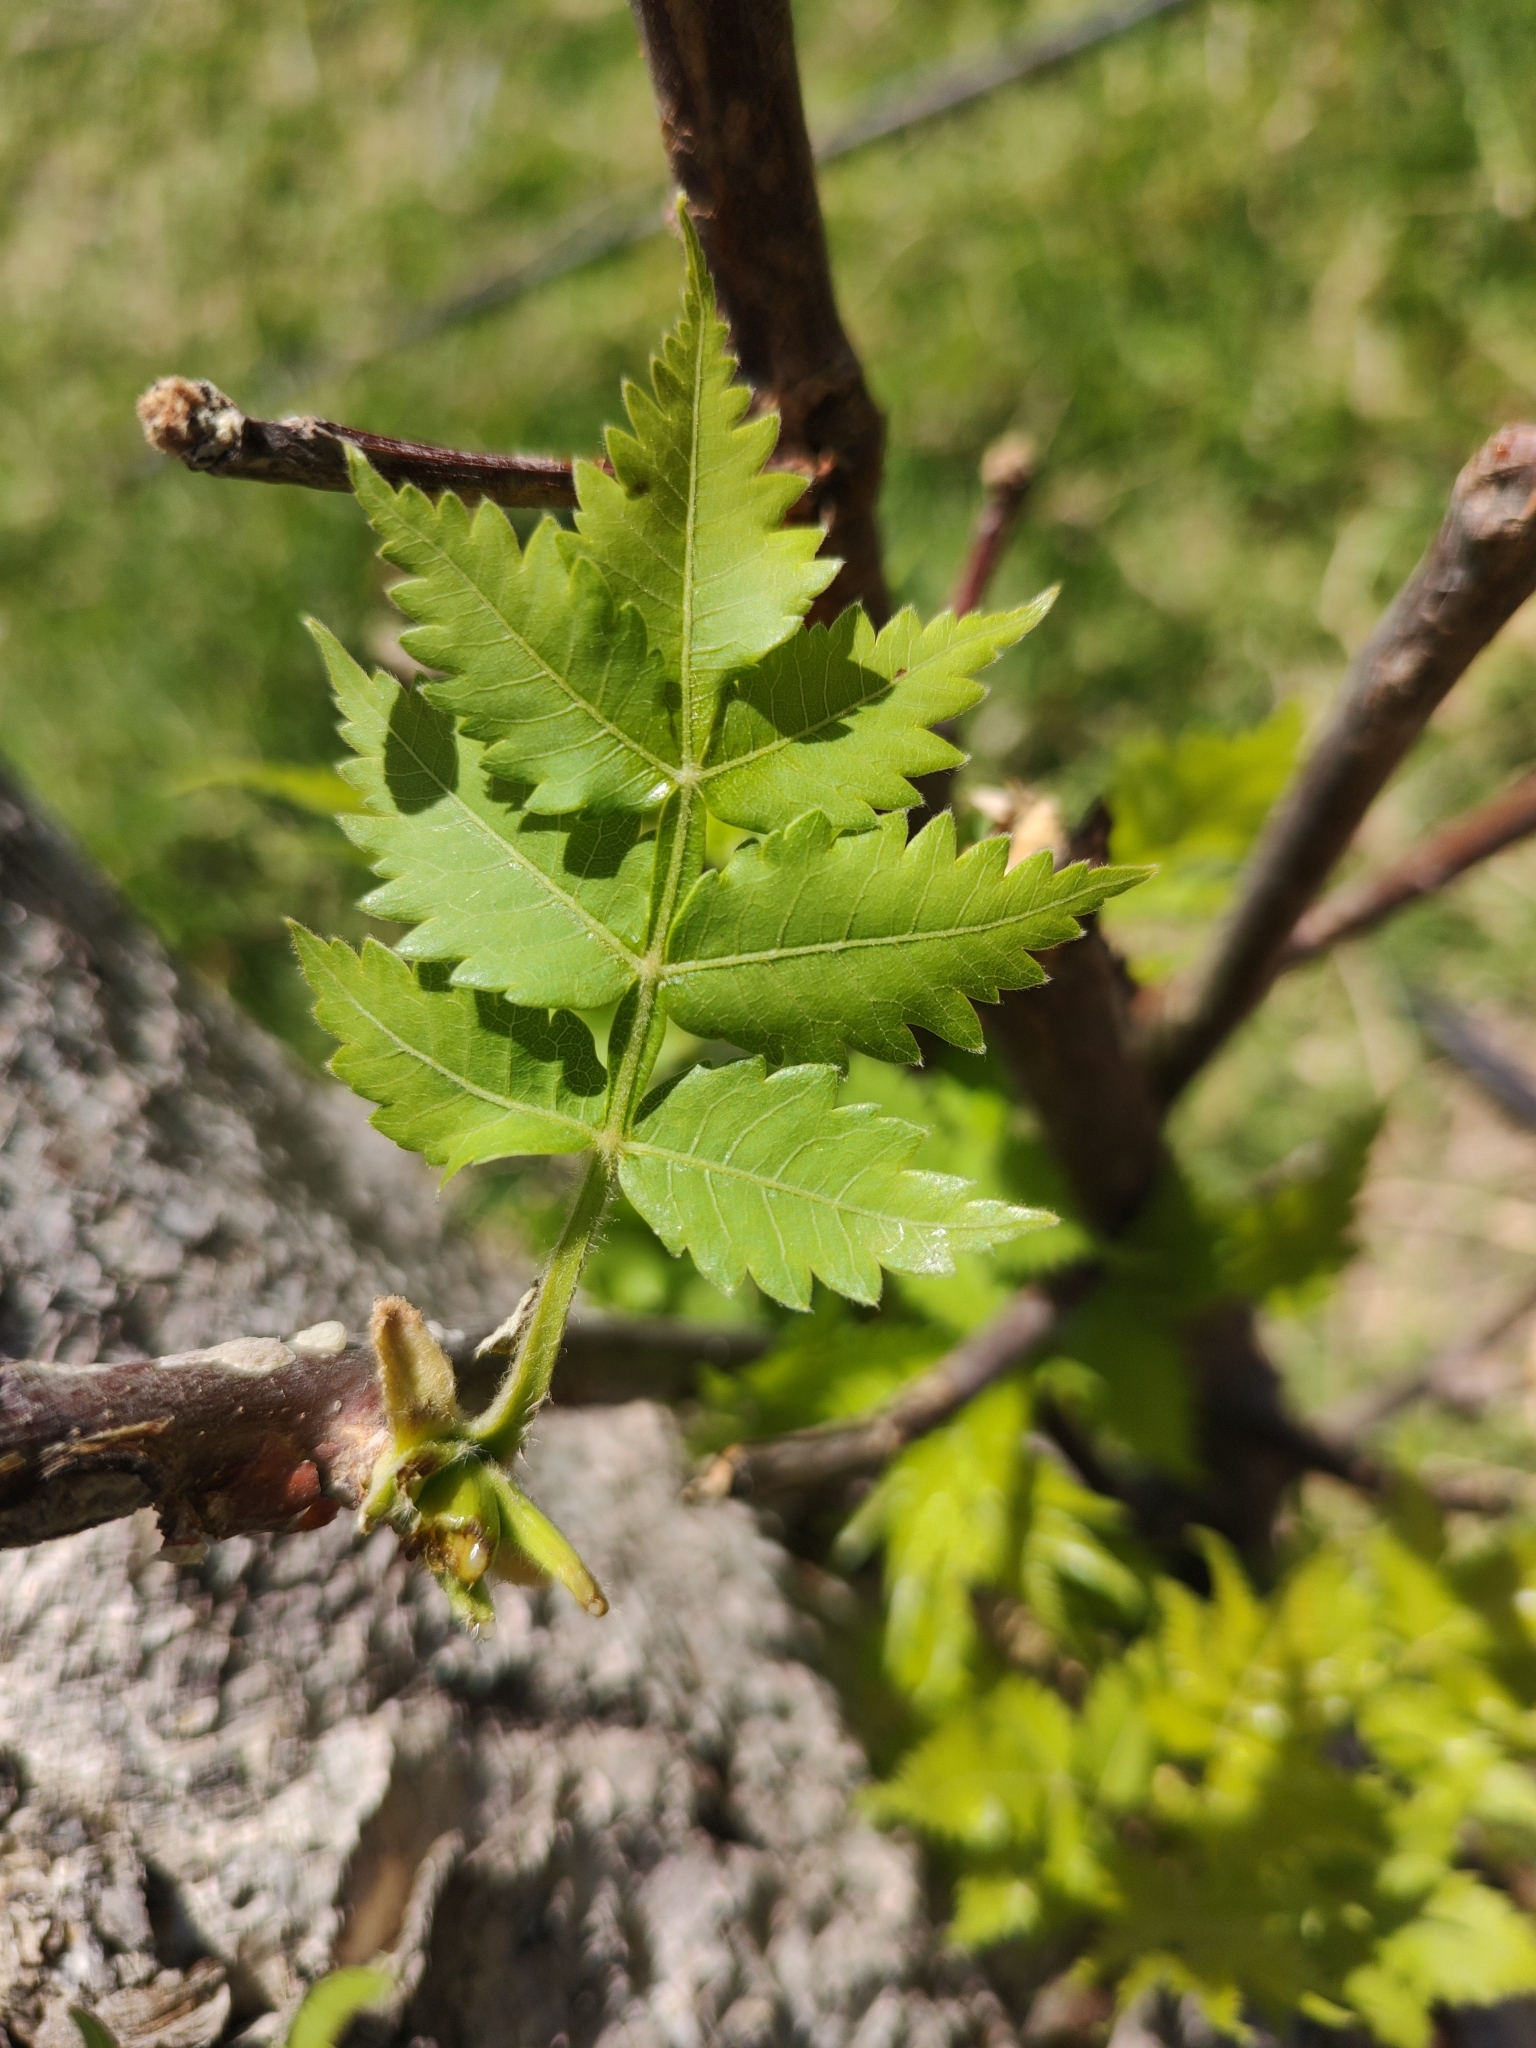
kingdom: Plantae
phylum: Tracheophyta
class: Magnoliopsida
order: Sapindales
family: Burseraceae
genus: Bursera
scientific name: Bursera penicillata
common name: Indian-lavender
